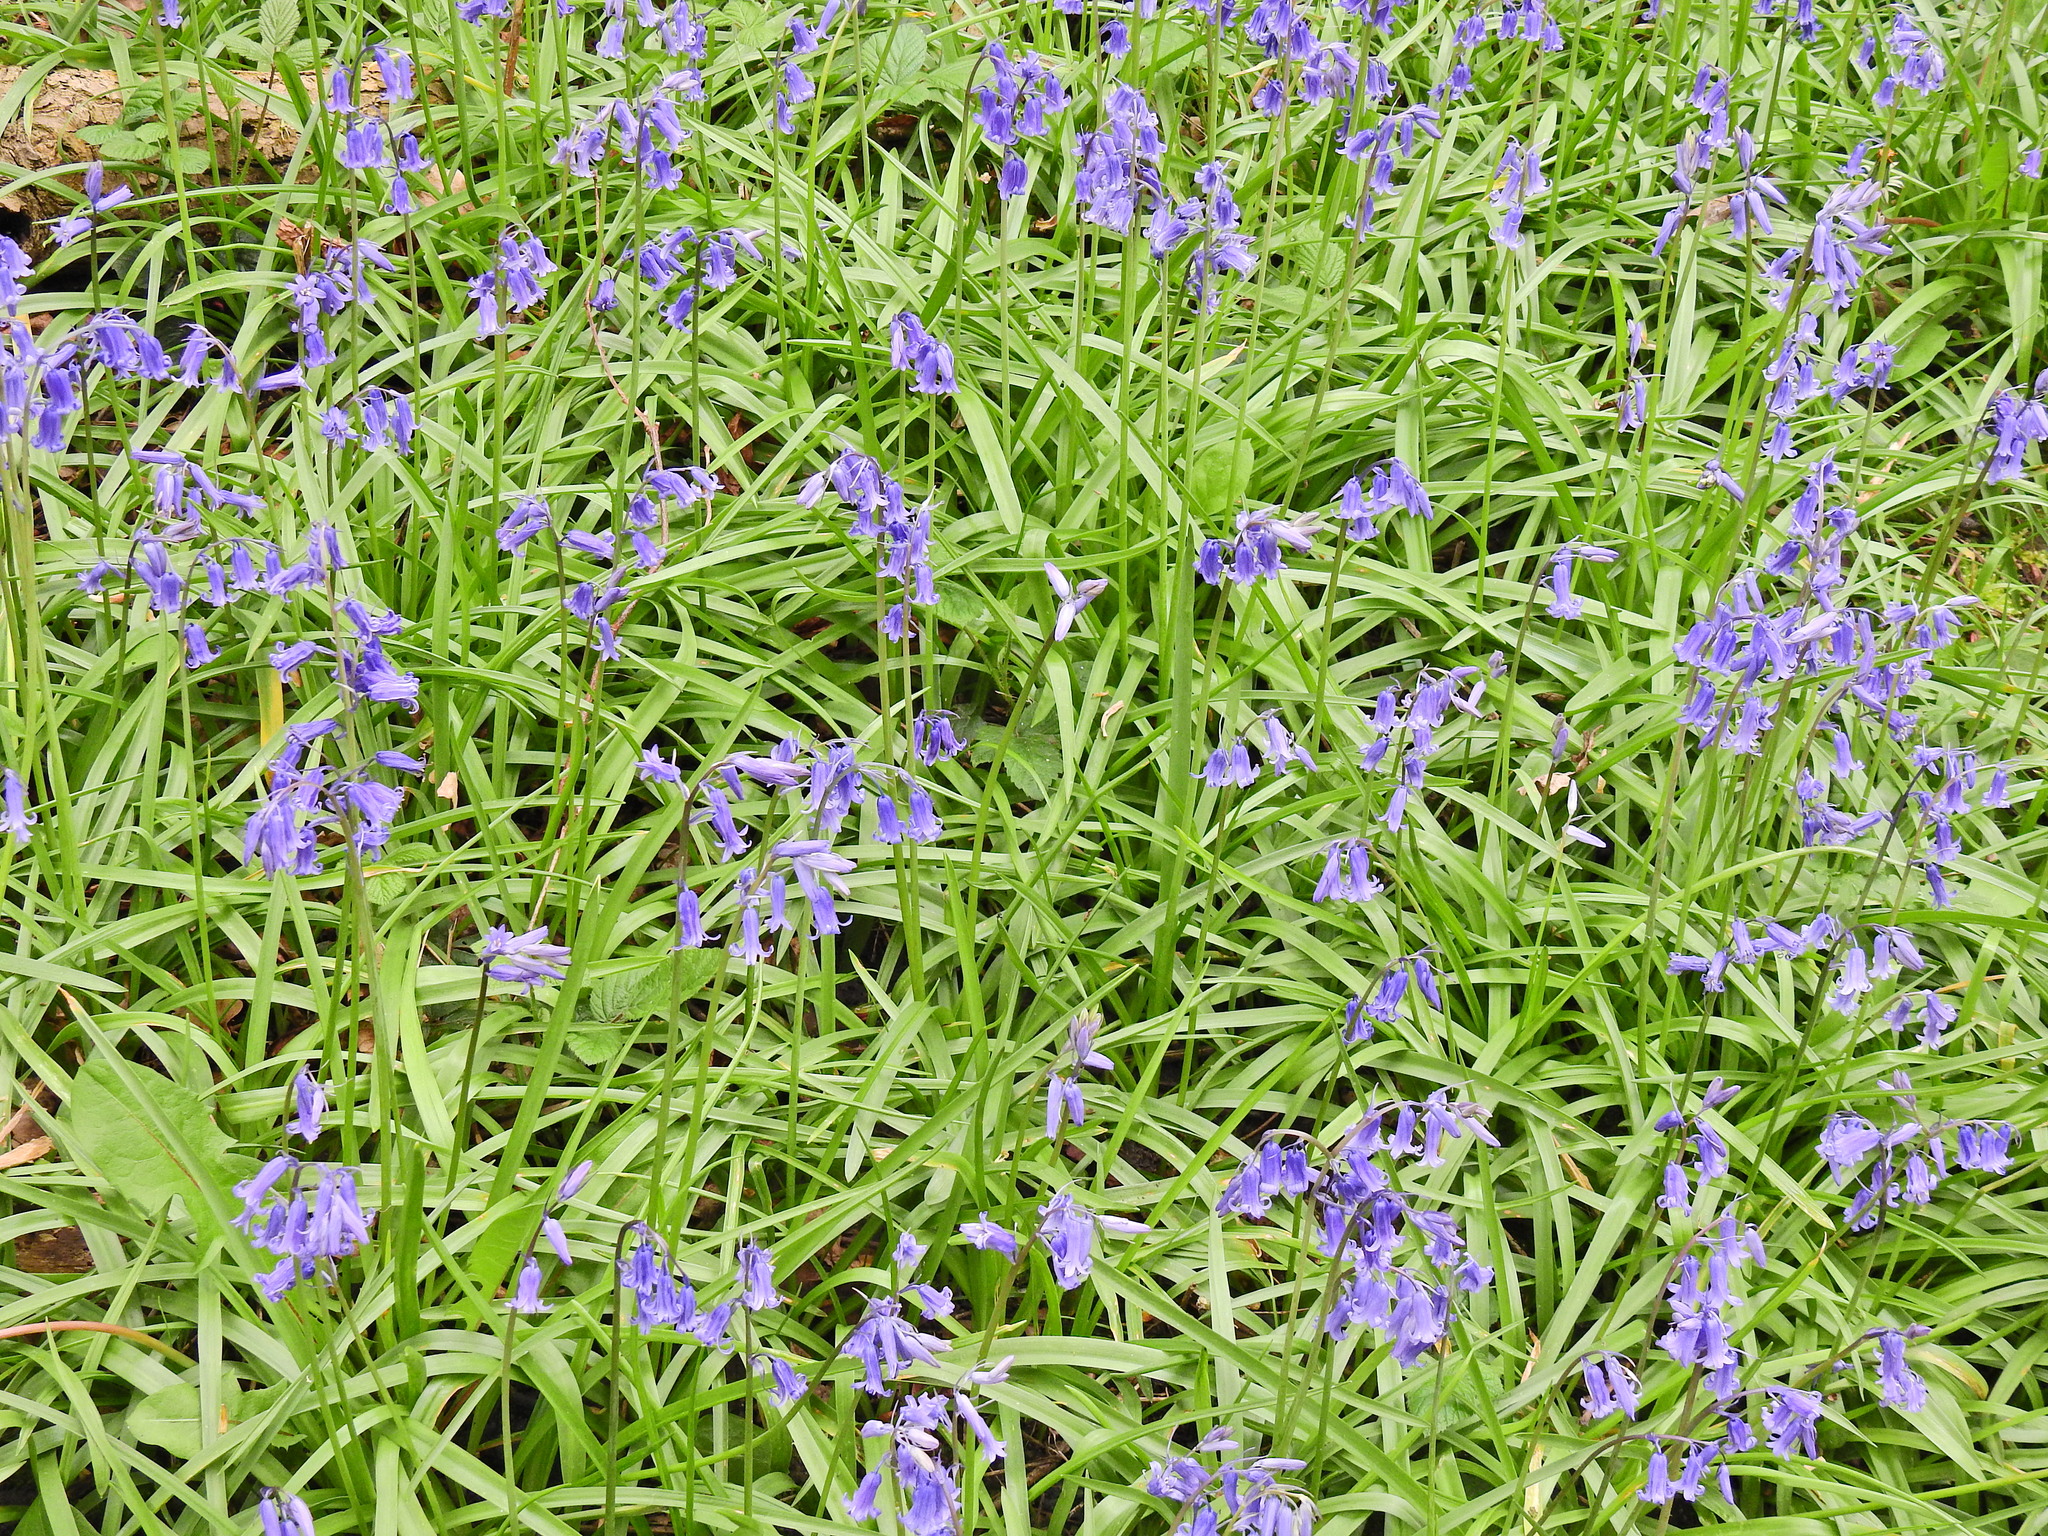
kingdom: Plantae
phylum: Tracheophyta
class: Liliopsida
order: Asparagales
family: Asparagaceae
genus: Hyacinthoides
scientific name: Hyacinthoides non-scripta
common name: Bluebell
